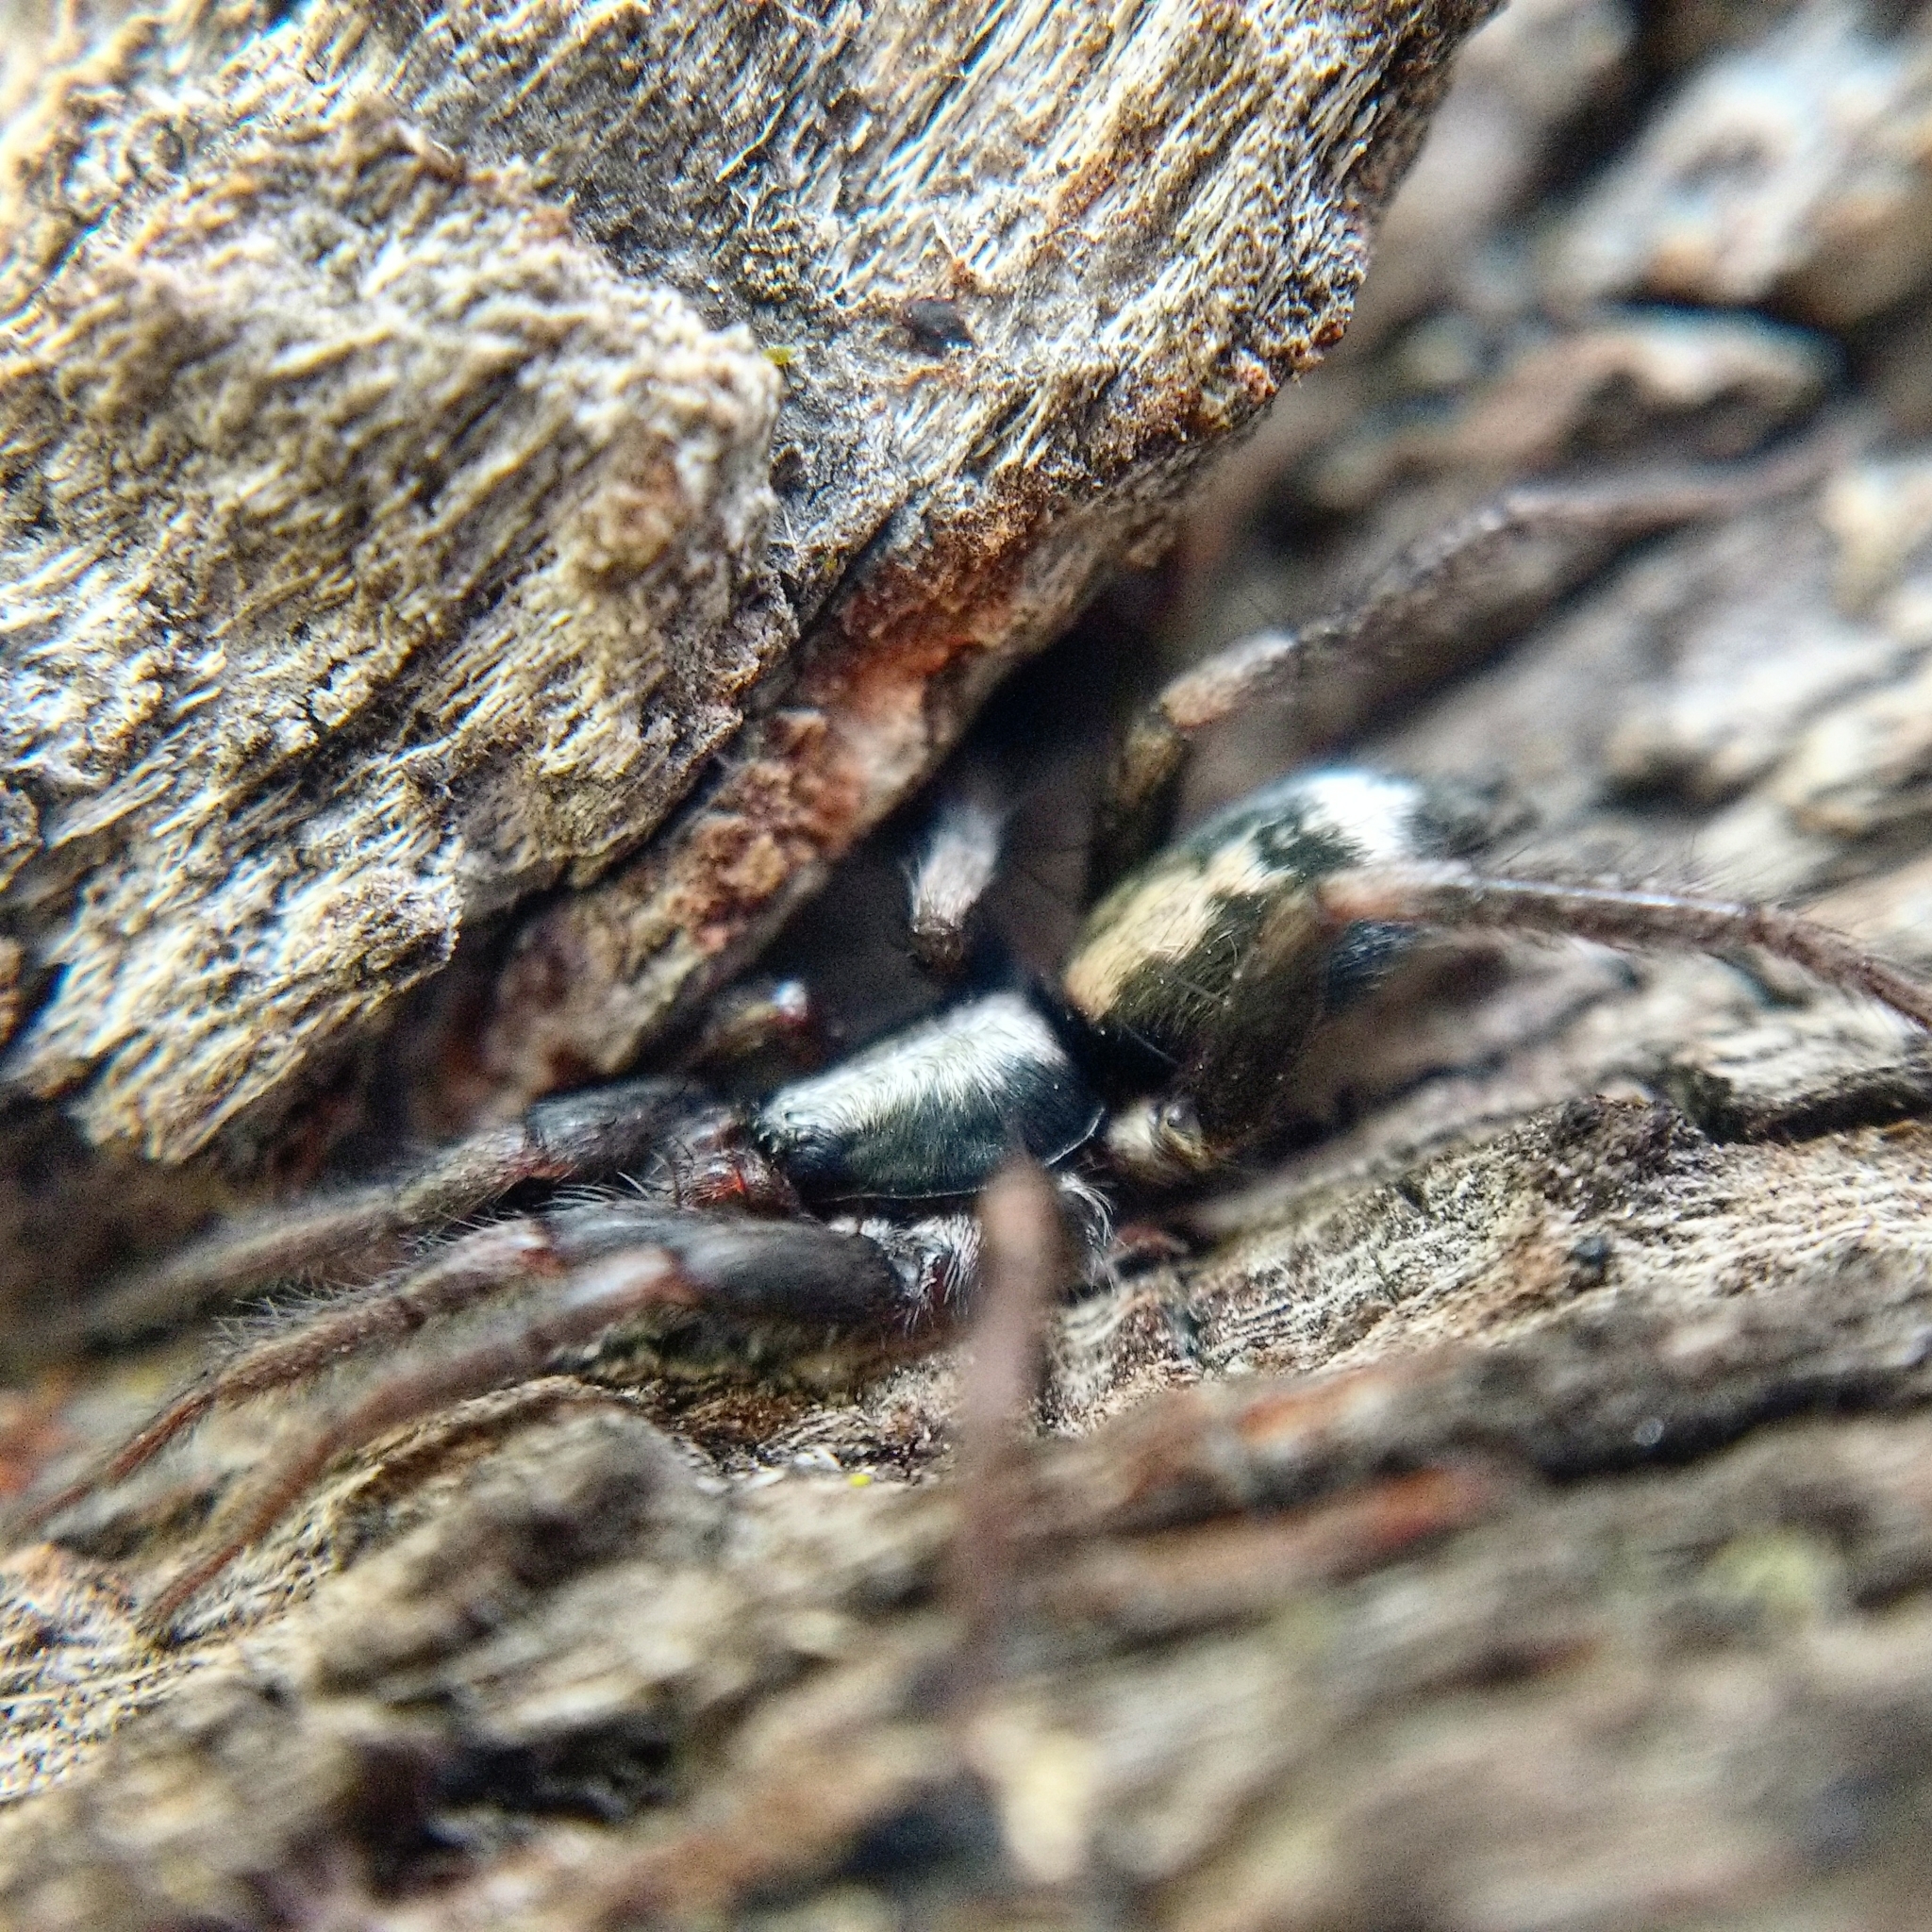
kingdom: Animalia
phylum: Arthropoda
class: Arachnida
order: Araneae
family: Gnaphosidae
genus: Herpyllus
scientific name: Herpyllus ecclesiasticus
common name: Eastern parson spider
